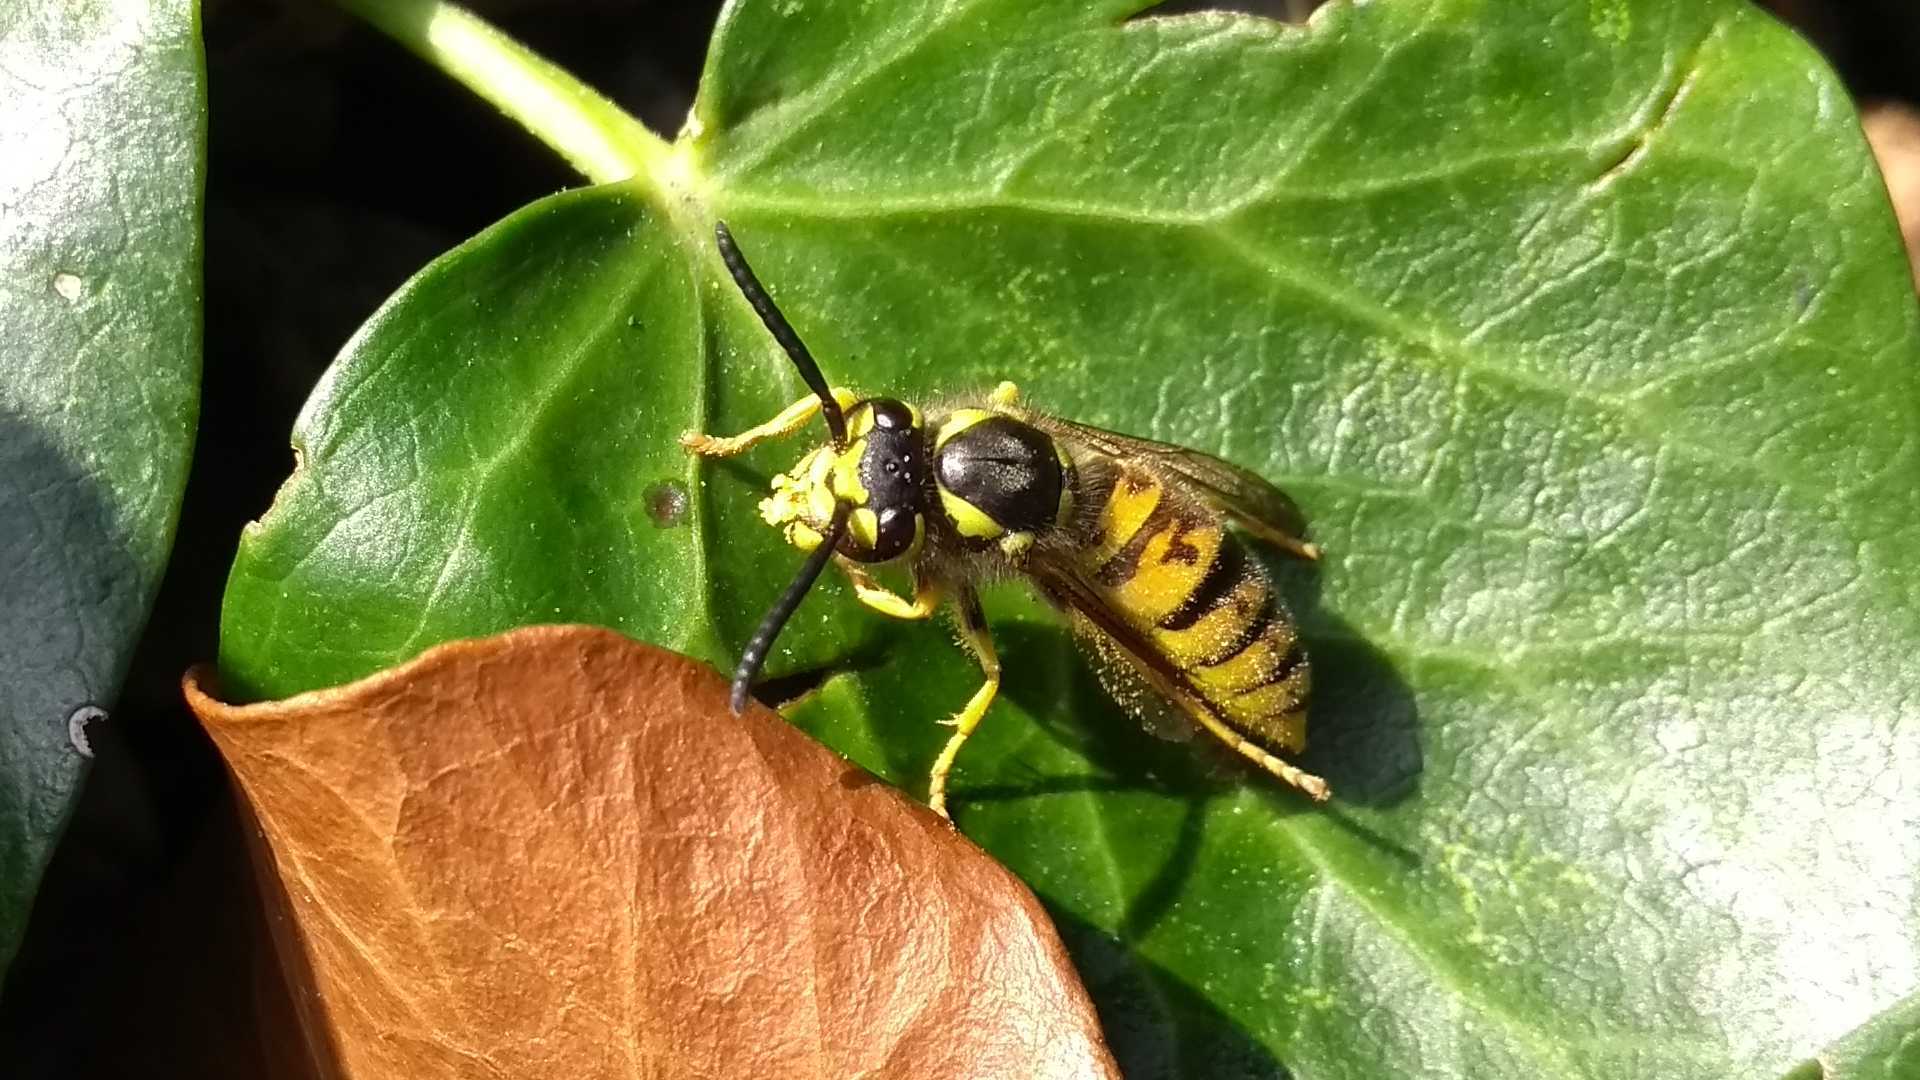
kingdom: Animalia
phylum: Arthropoda
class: Insecta
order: Hymenoptera
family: Vespidae
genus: Vespula
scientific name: Vespula germanica
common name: German wasp
